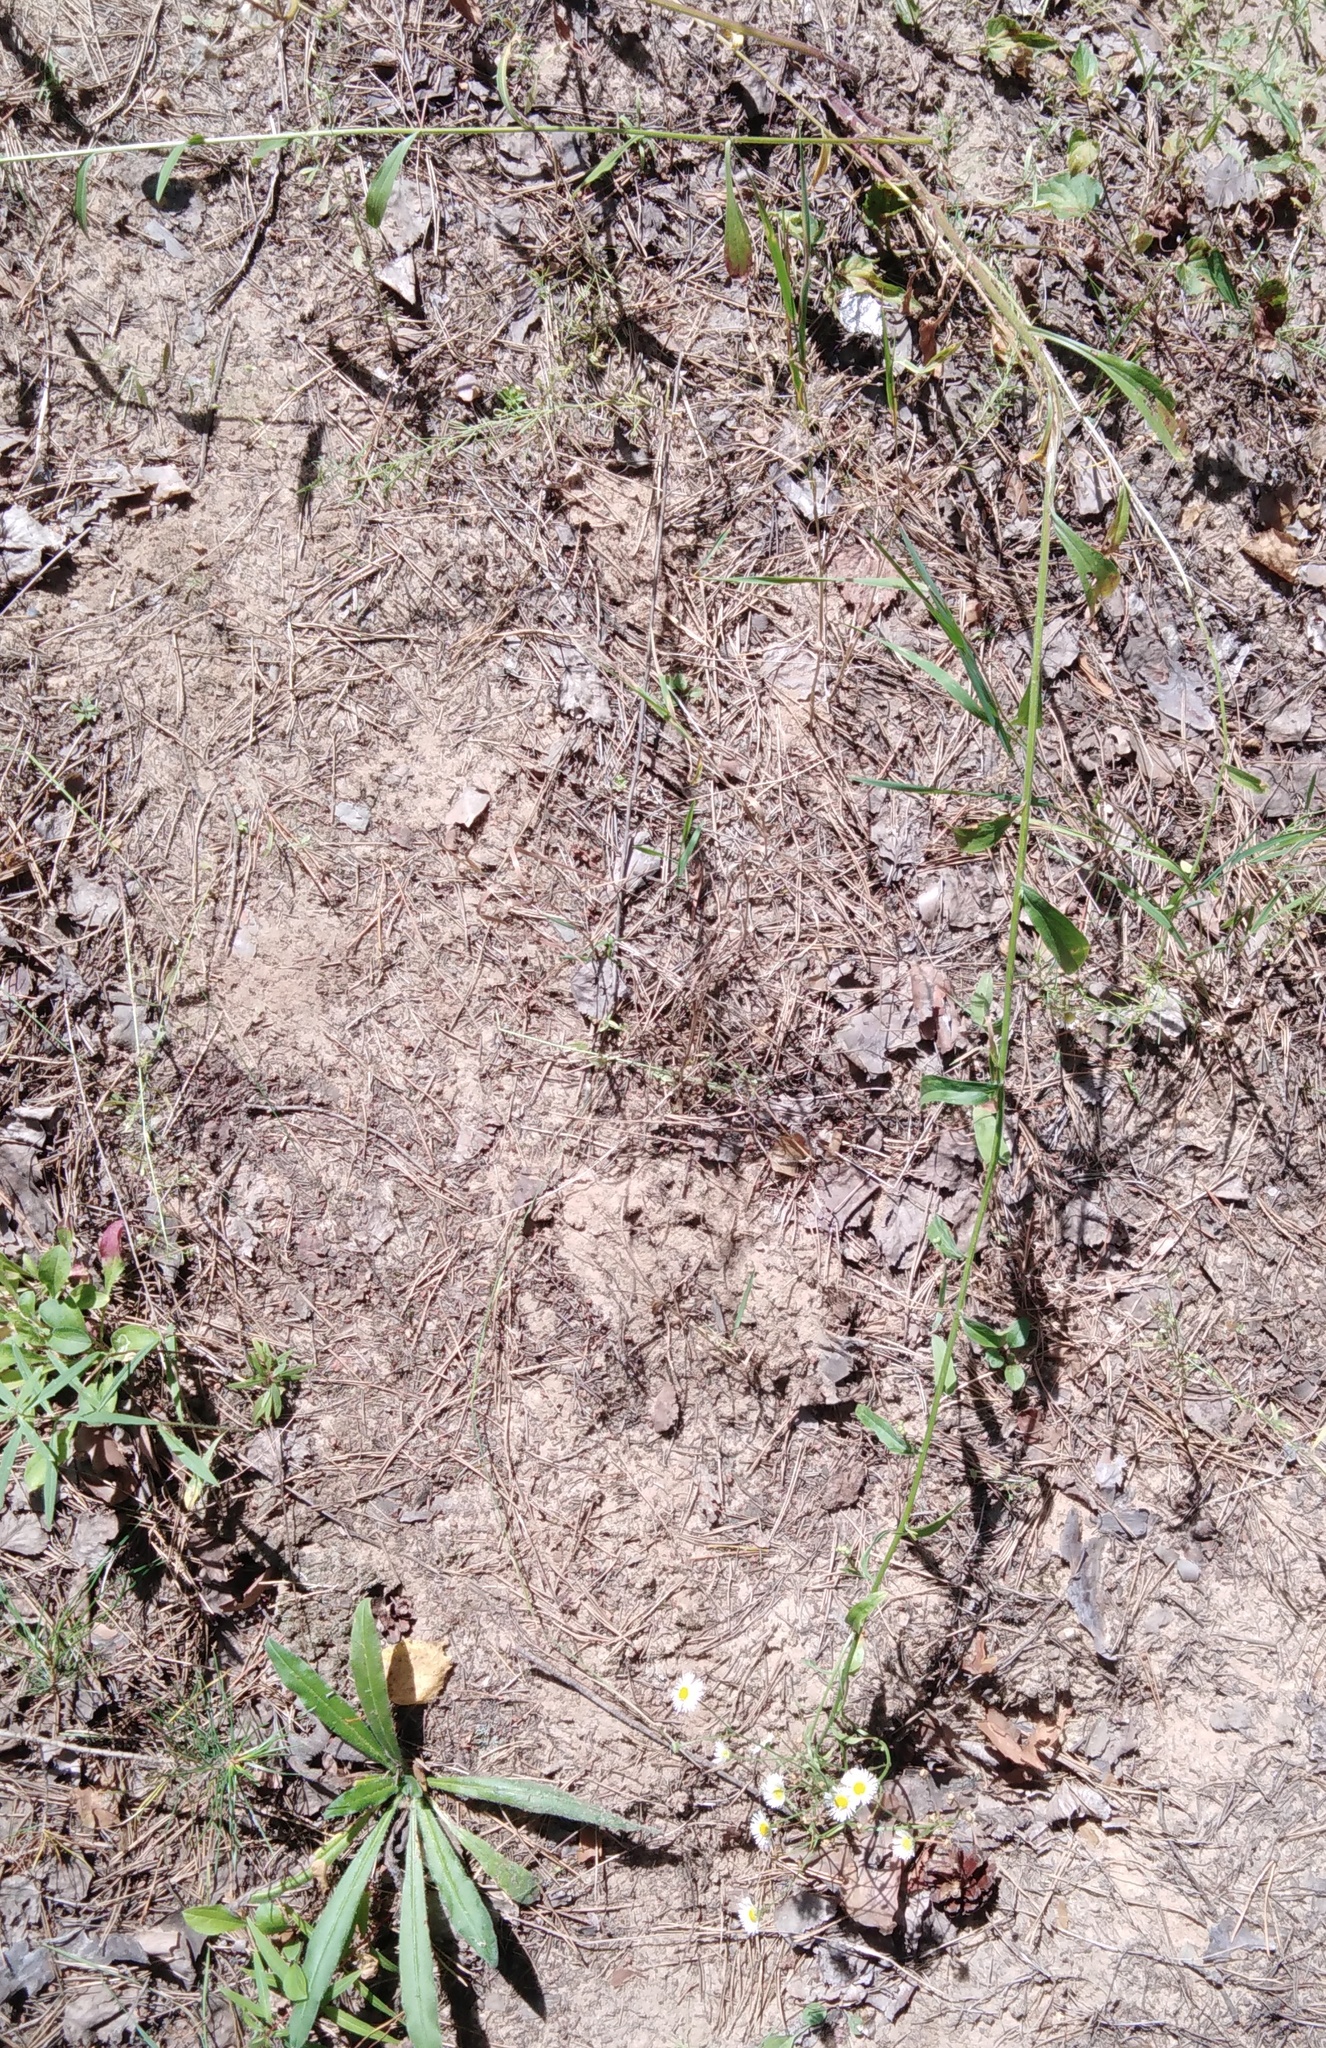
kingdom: Plantae
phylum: Tracheophyta
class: Magnoliopsida
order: Asterales
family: Asteraceae
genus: Erigeron
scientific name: Erigeron annuus
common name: Tall fleabane
